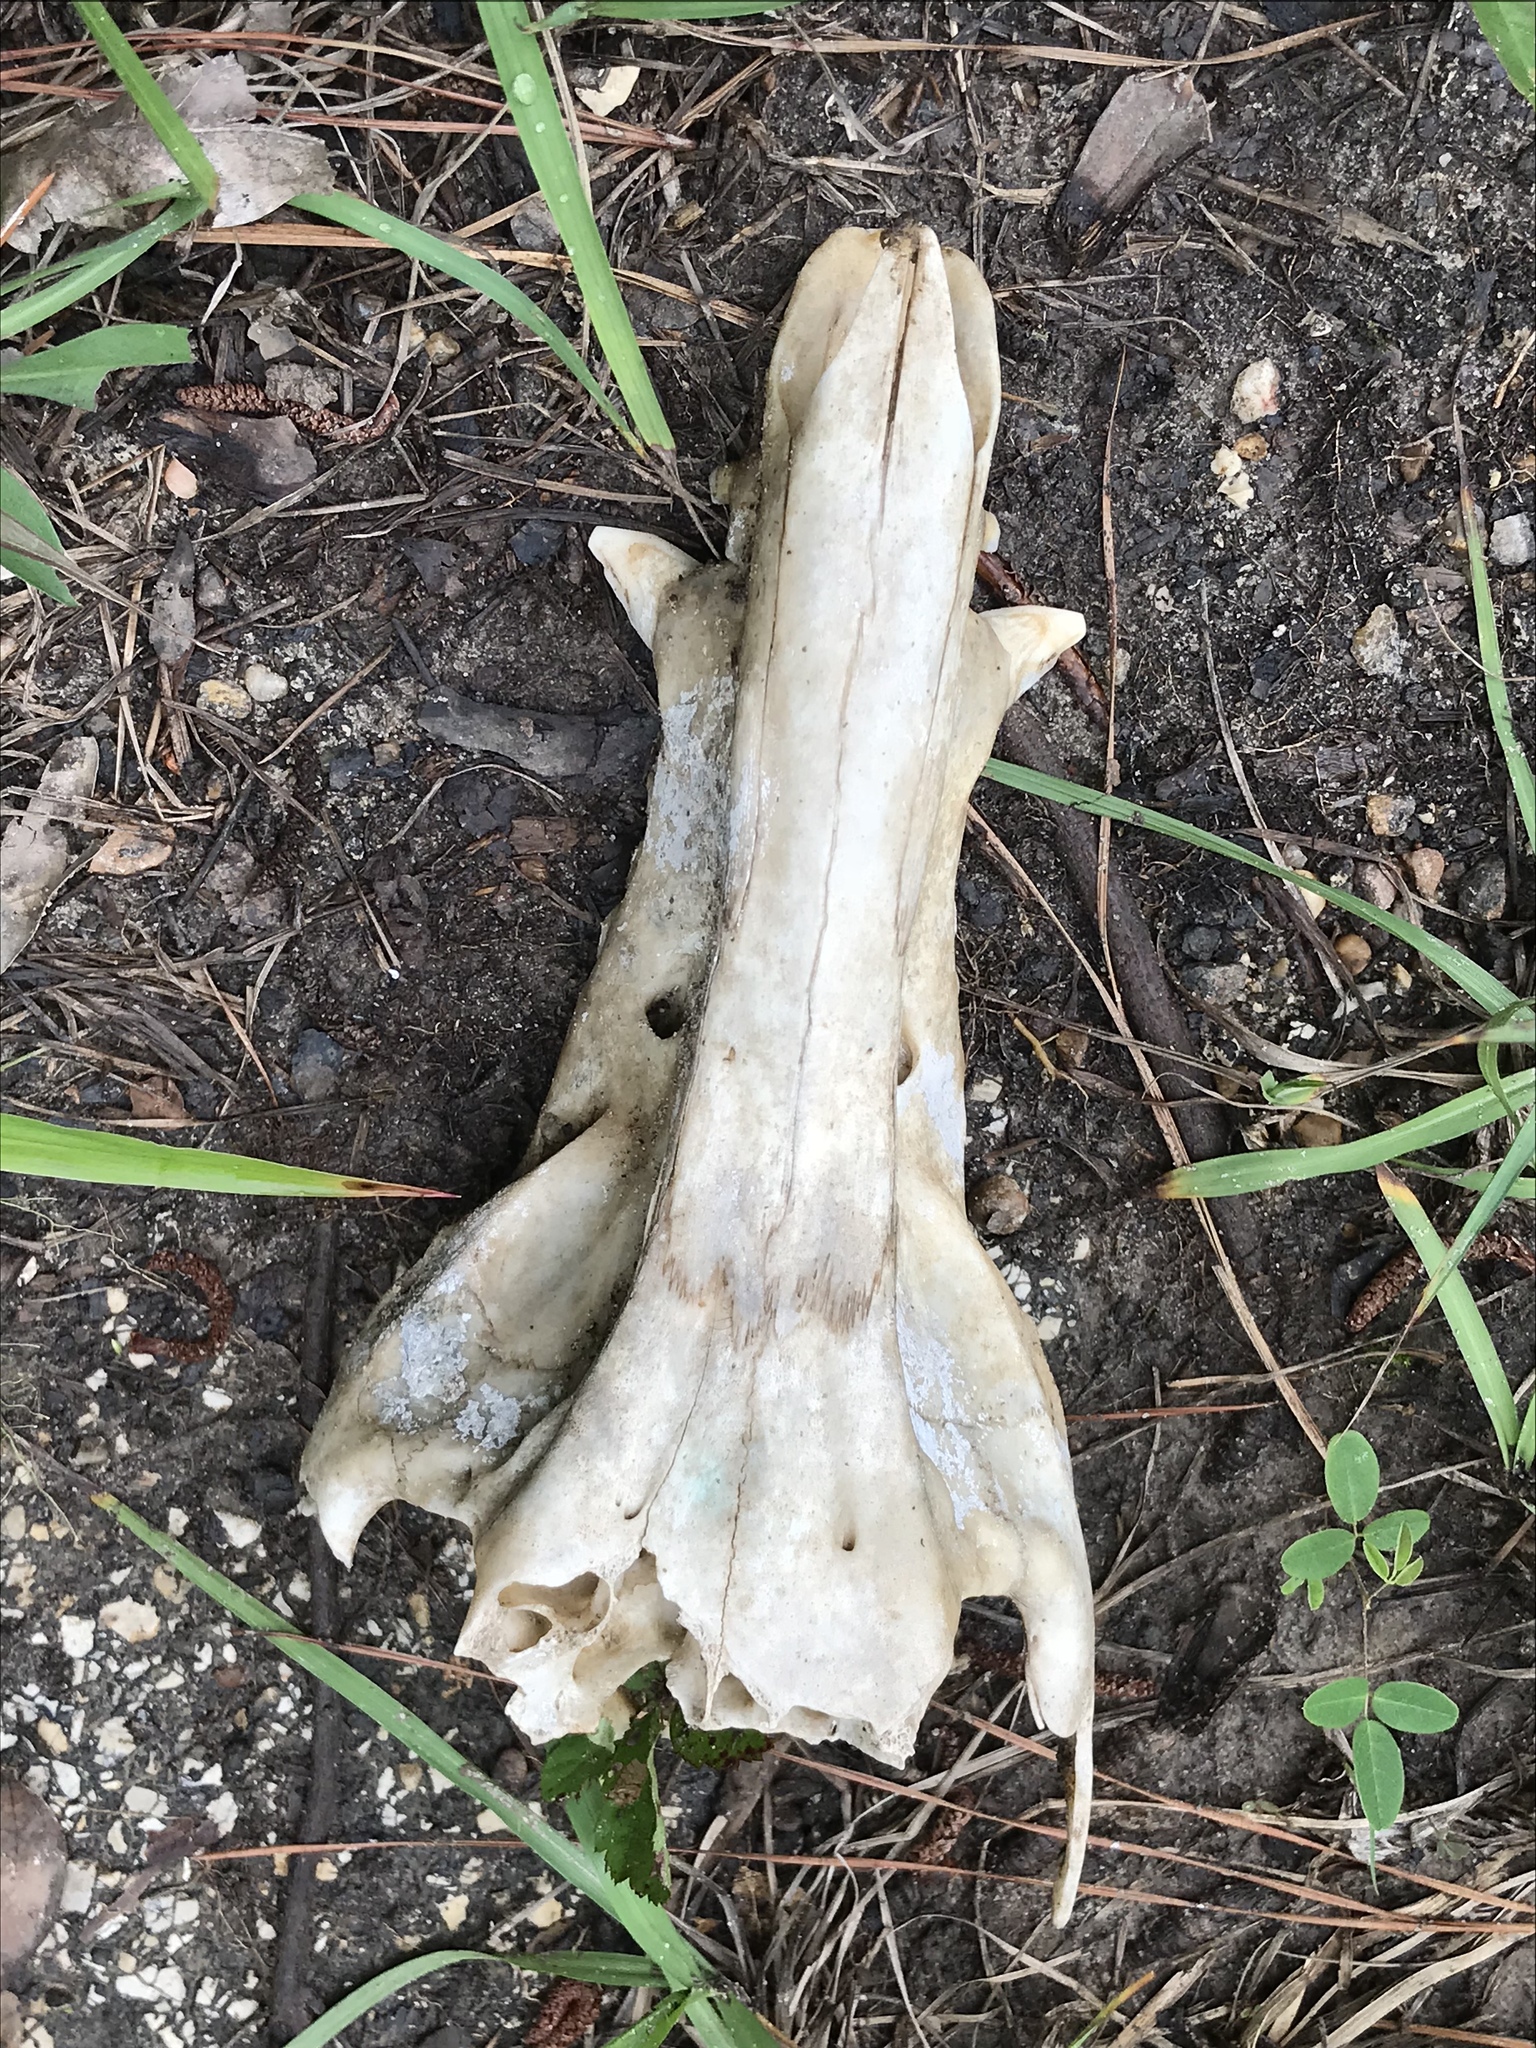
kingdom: Animalia
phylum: Chordata
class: Mammalia
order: Artiodactyla
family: Suidae
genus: Sus
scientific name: Sus scrofa
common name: Wild boar
